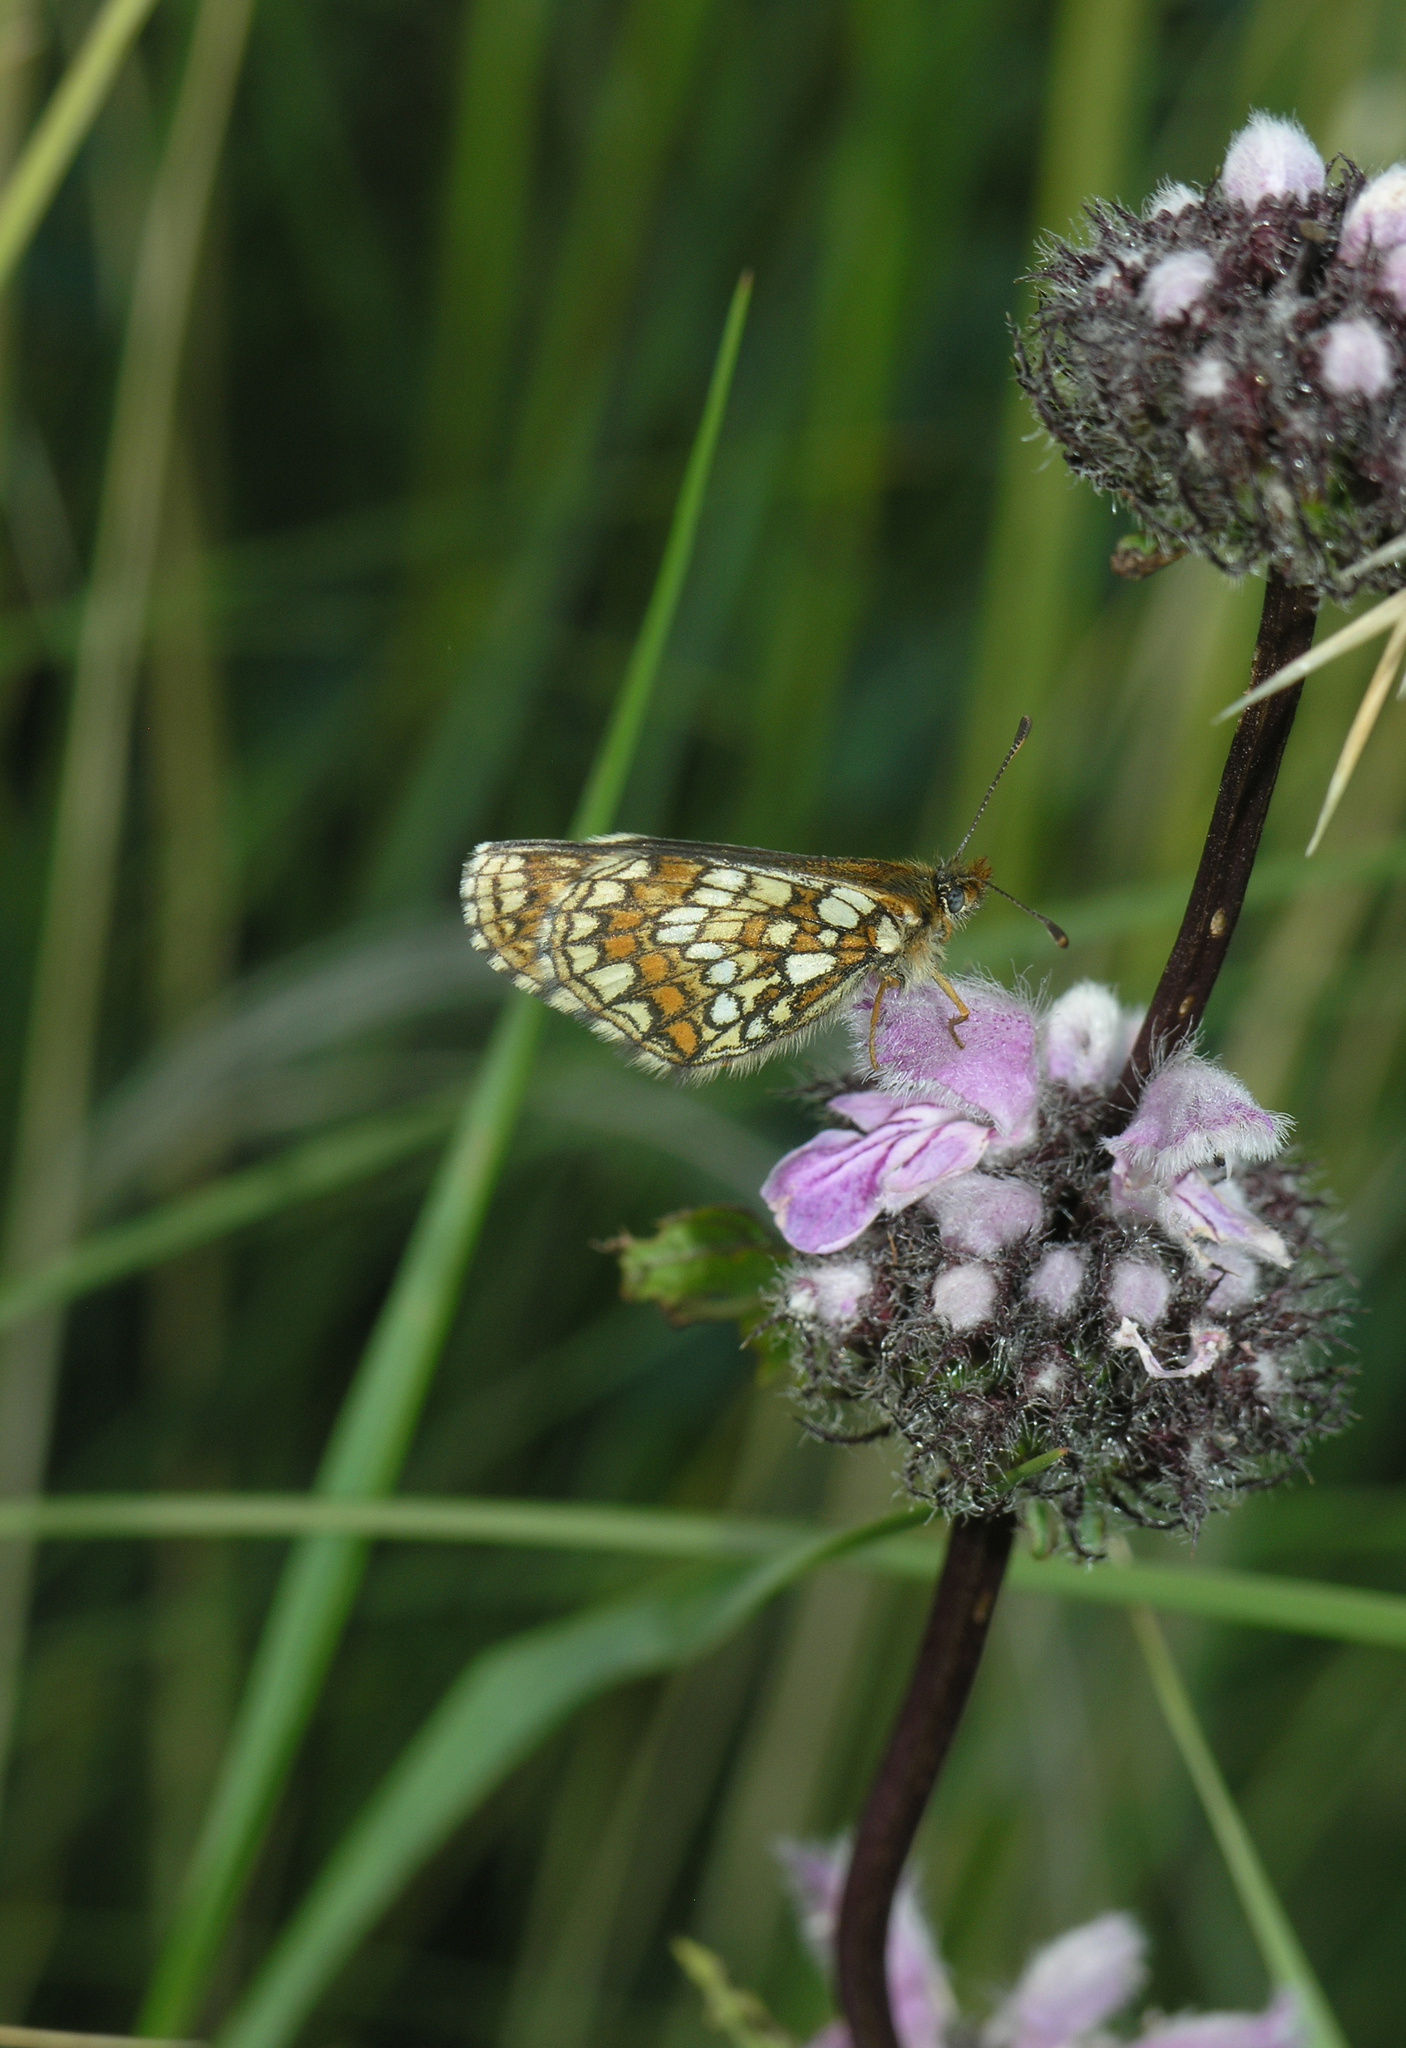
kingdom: Animalia
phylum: Arthropoda
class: Insecta
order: Lepidoptera
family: Nymphalidae
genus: Mellicta
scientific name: Mellicta menetriesi
